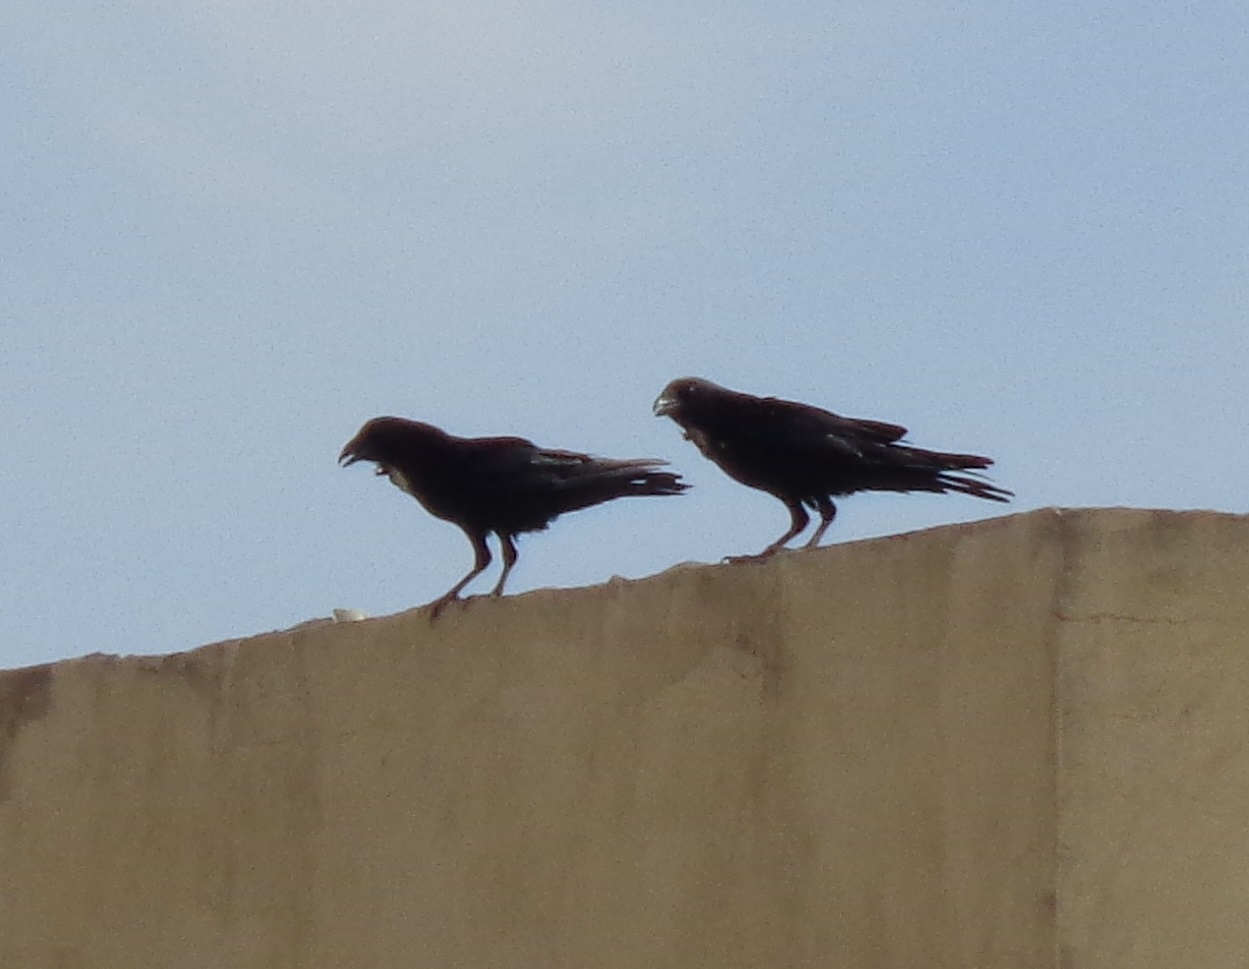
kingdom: Animalia
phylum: Chordata
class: Aves
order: Passeriformes
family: Corvidae
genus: Corvus
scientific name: Corvus cryptoleucus
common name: Chihuahuan raven
